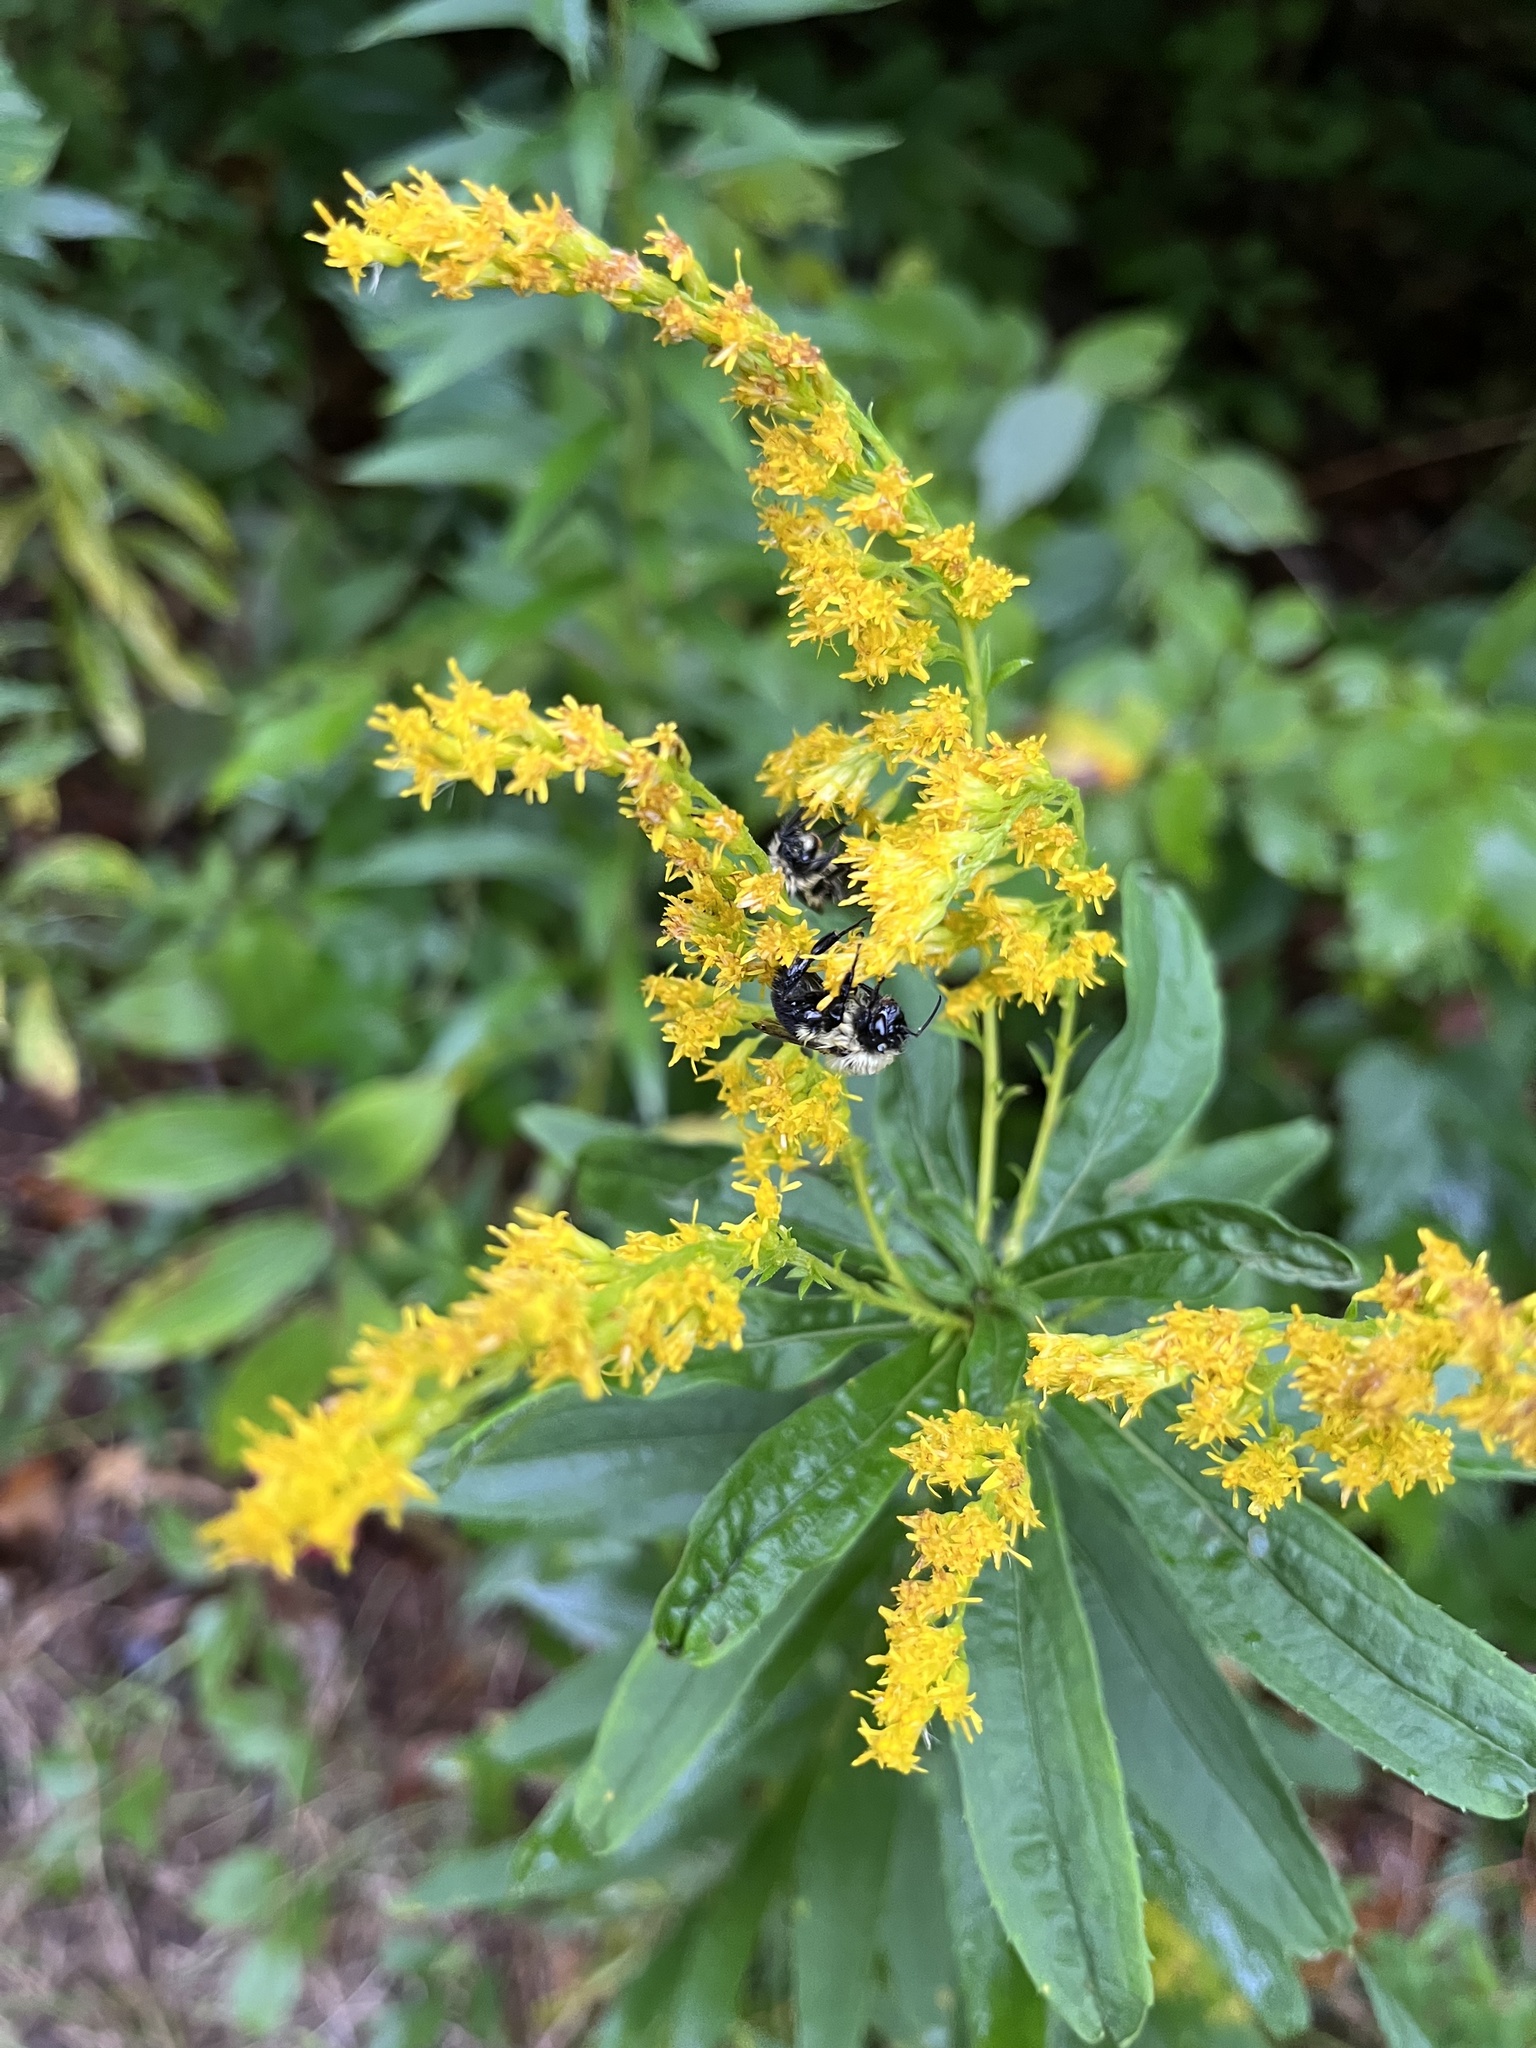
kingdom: Animalia
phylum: Arthropoda
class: Insecta
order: Hymenoptera
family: Apidae
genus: Bombus
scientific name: Bombus impatiens
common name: Common eastern bumble bee
